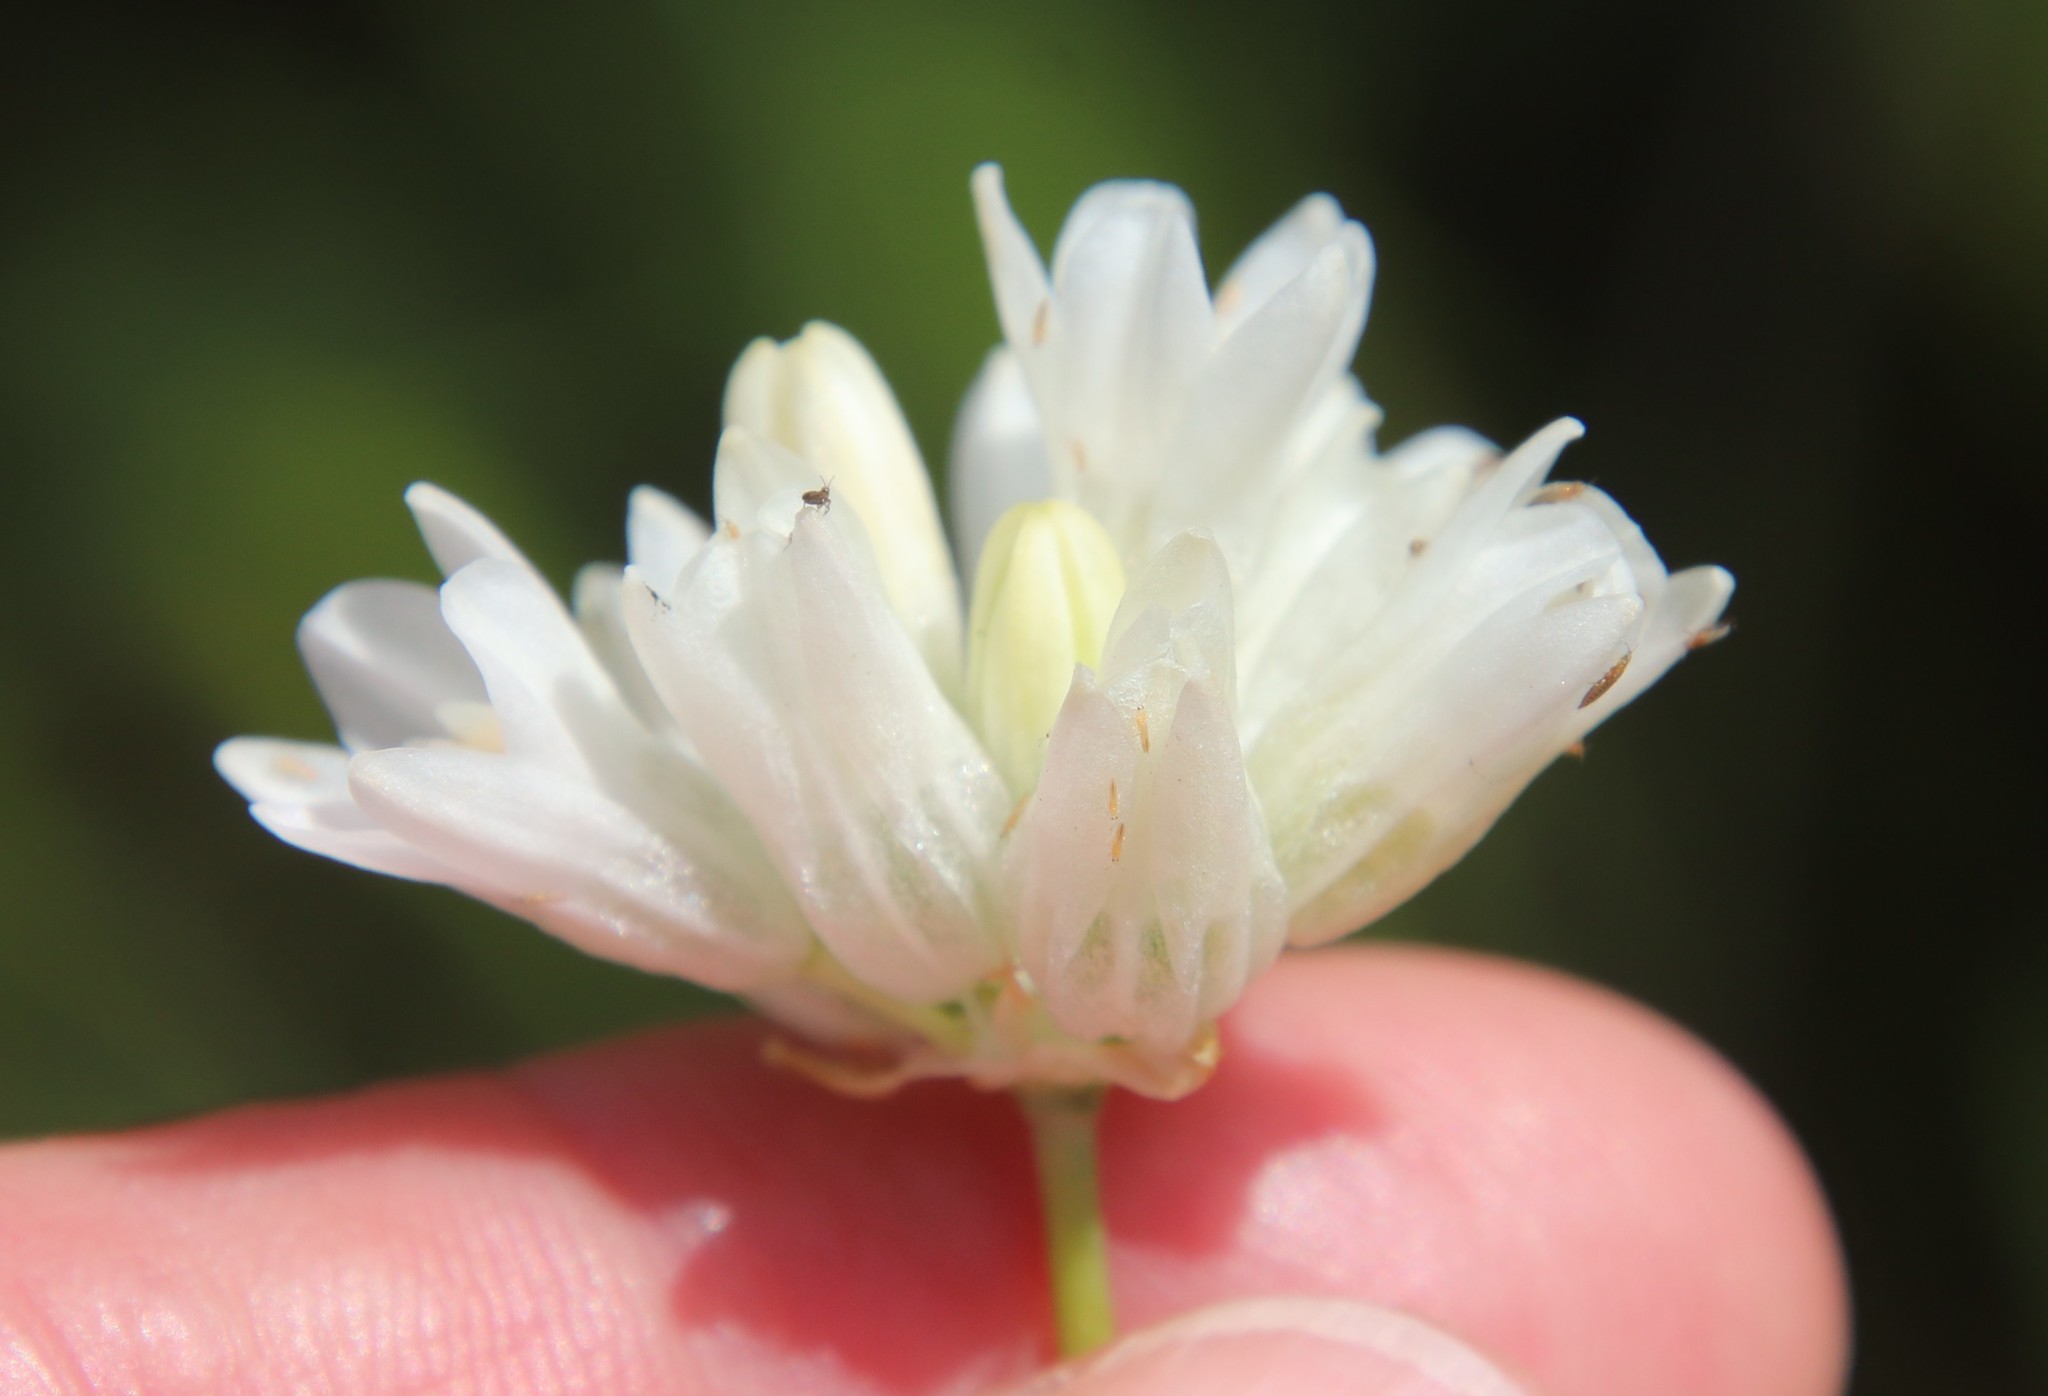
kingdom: Plantae
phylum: Tracheophyta
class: Liliopsida
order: Asparagales
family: Asparagaceae
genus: Dipterostemon
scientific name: Dipterostemon capitatus
